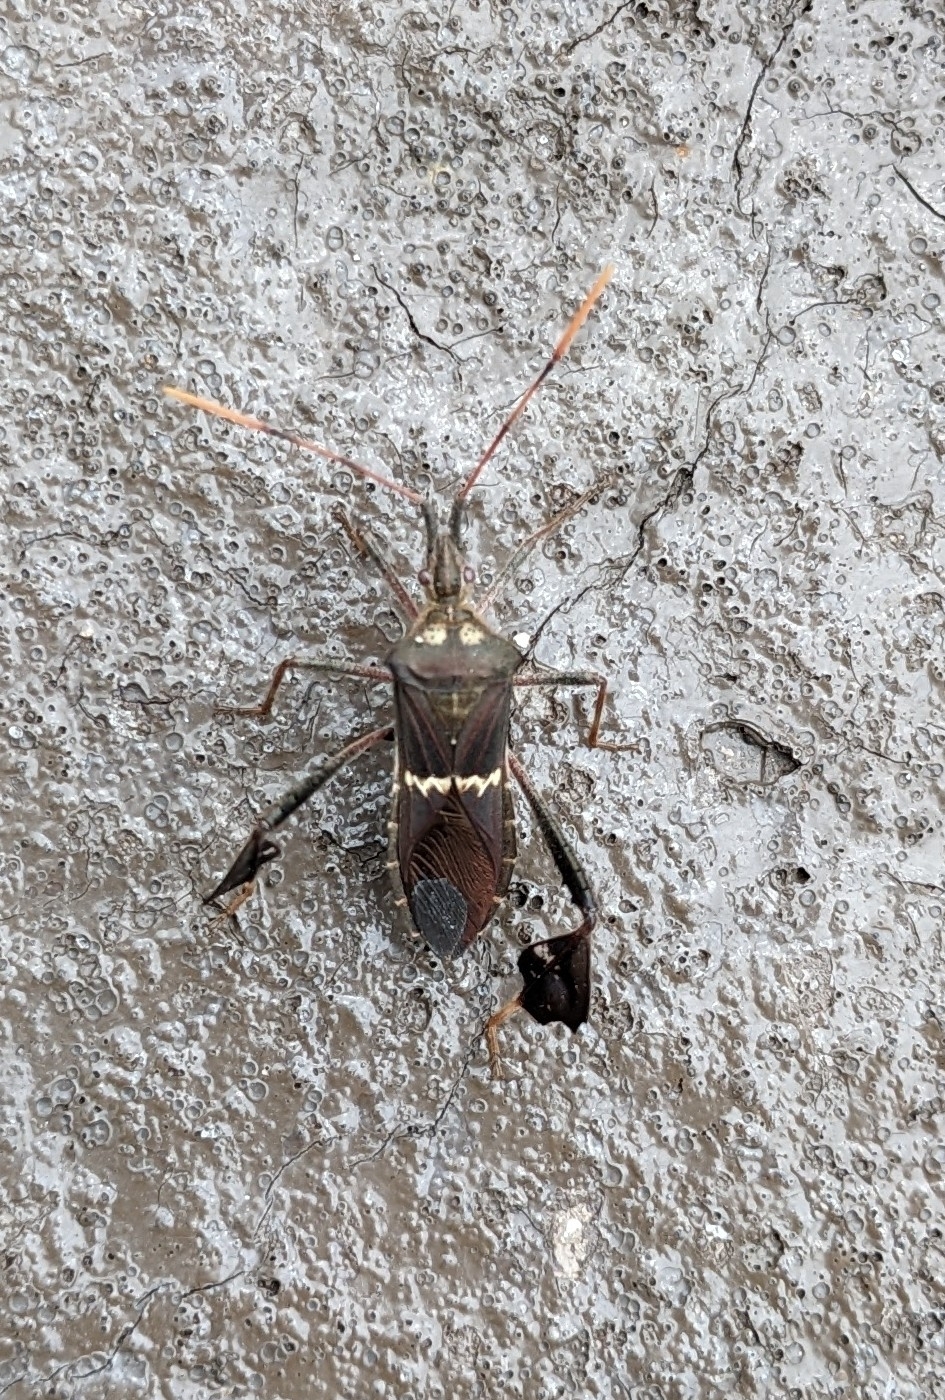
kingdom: Animalia
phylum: Arthropoda
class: Insecta
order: Hemiptera
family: Coreidae
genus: Leptoglossus
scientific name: Leptoglossus zonatus
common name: Large-legged bug
